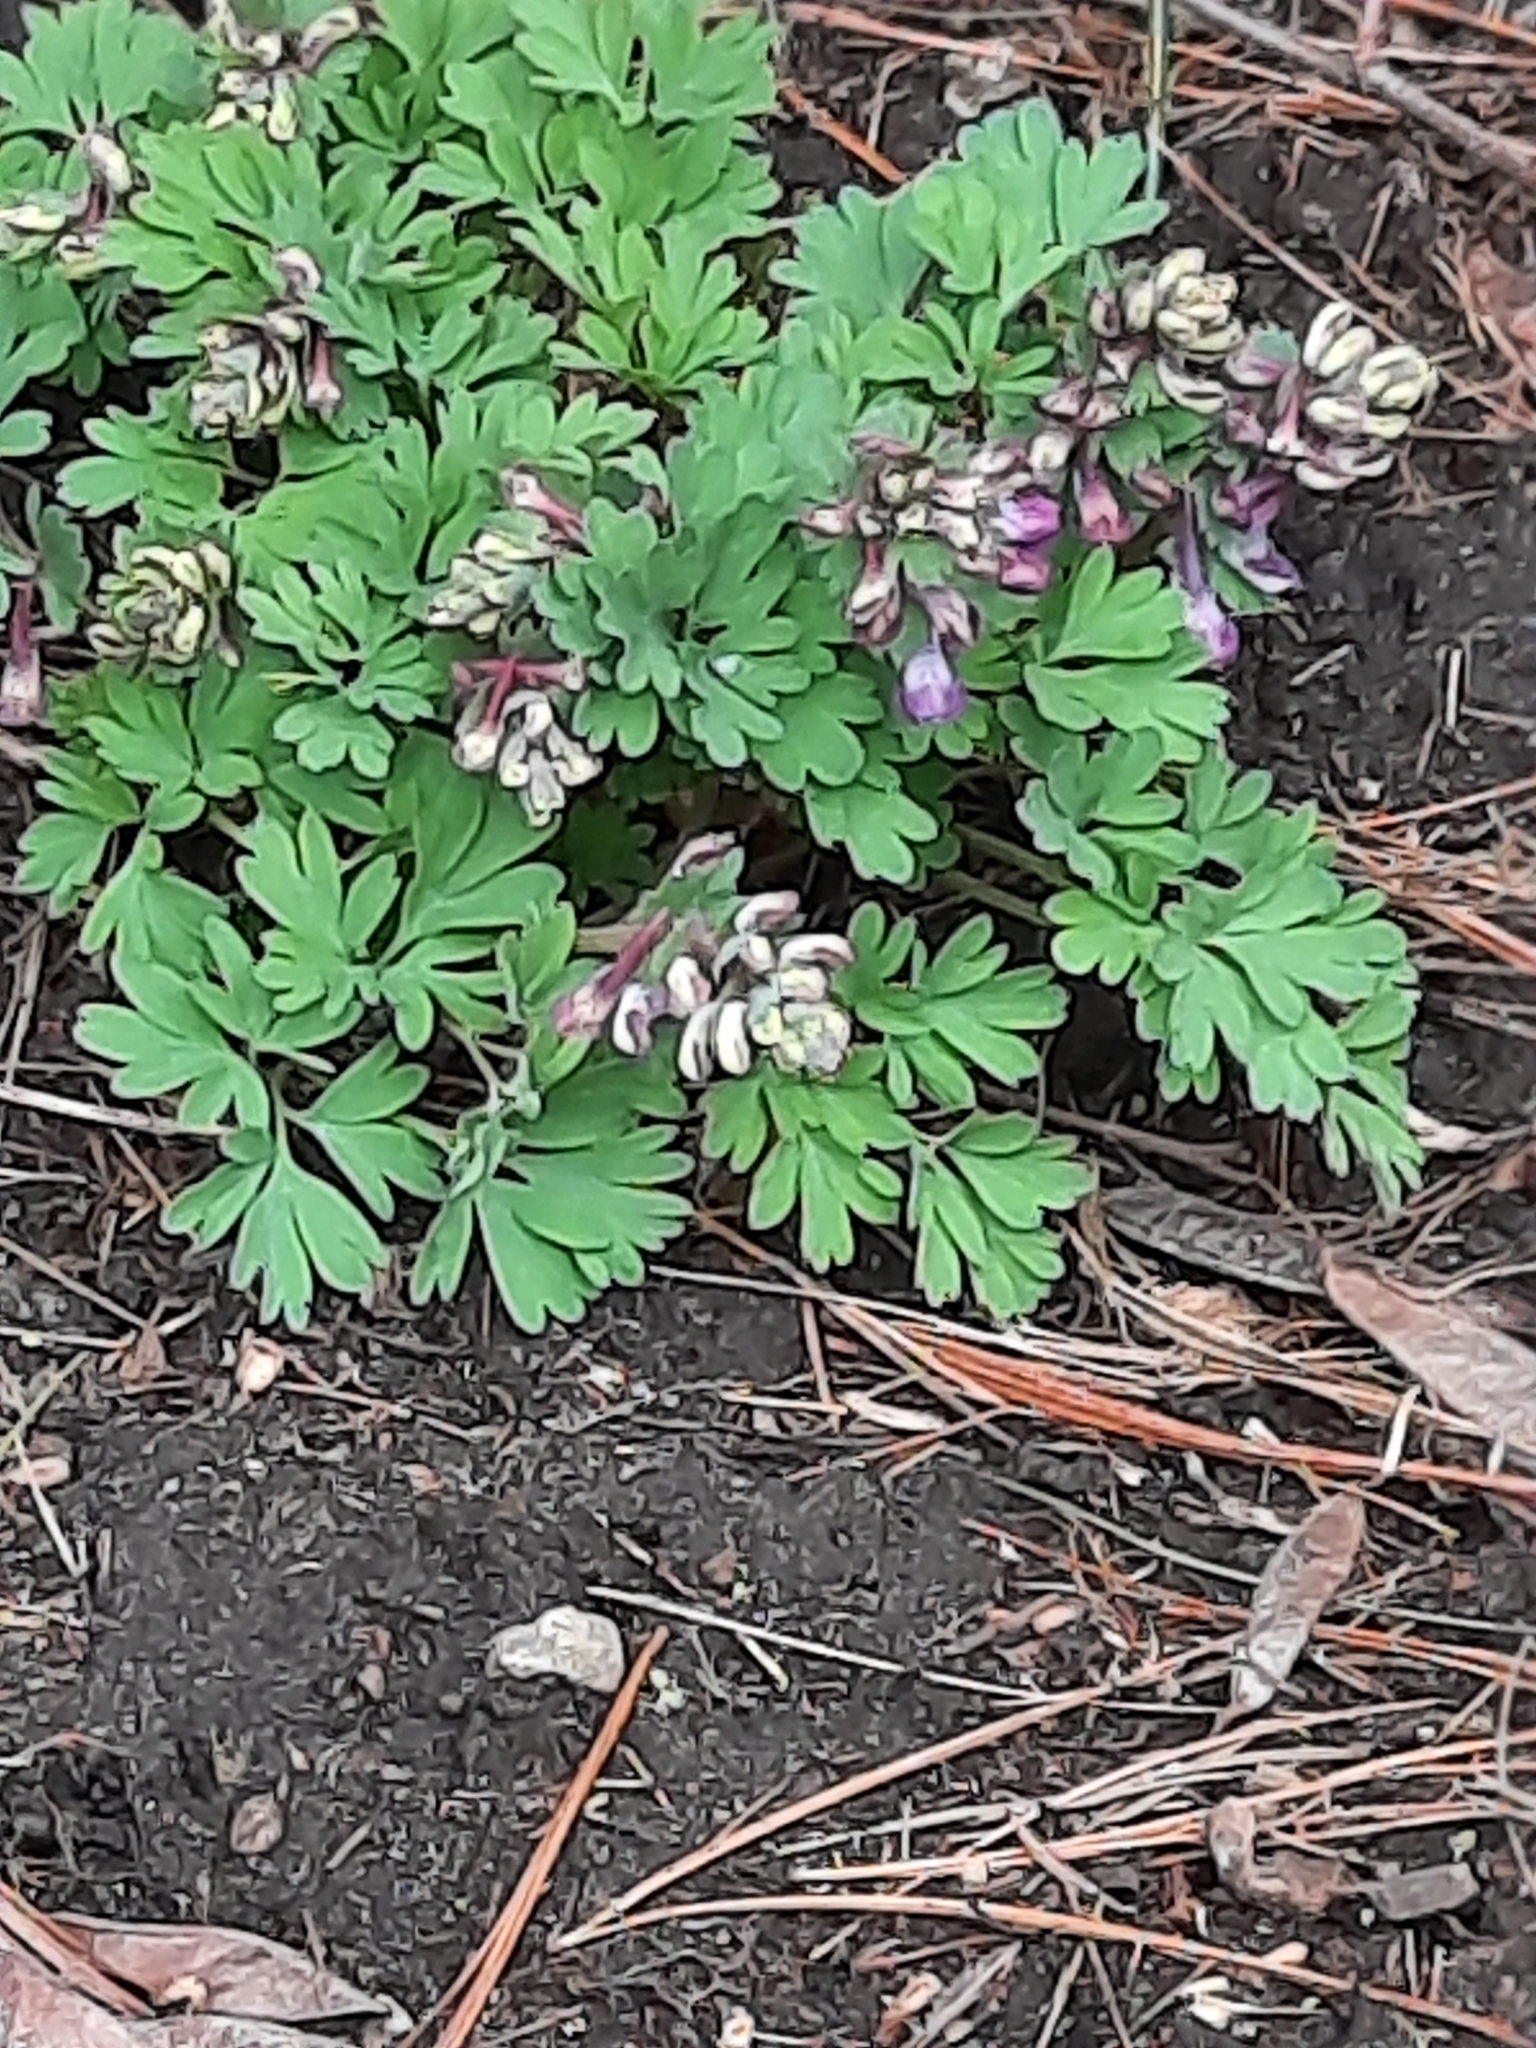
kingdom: Plantae
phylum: Tracheophyta
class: Magnoliopsida
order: Ranunculales
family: Papaveraceae
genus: Corydalis
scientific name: Corydalis solida
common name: Bird-in-a-bush
